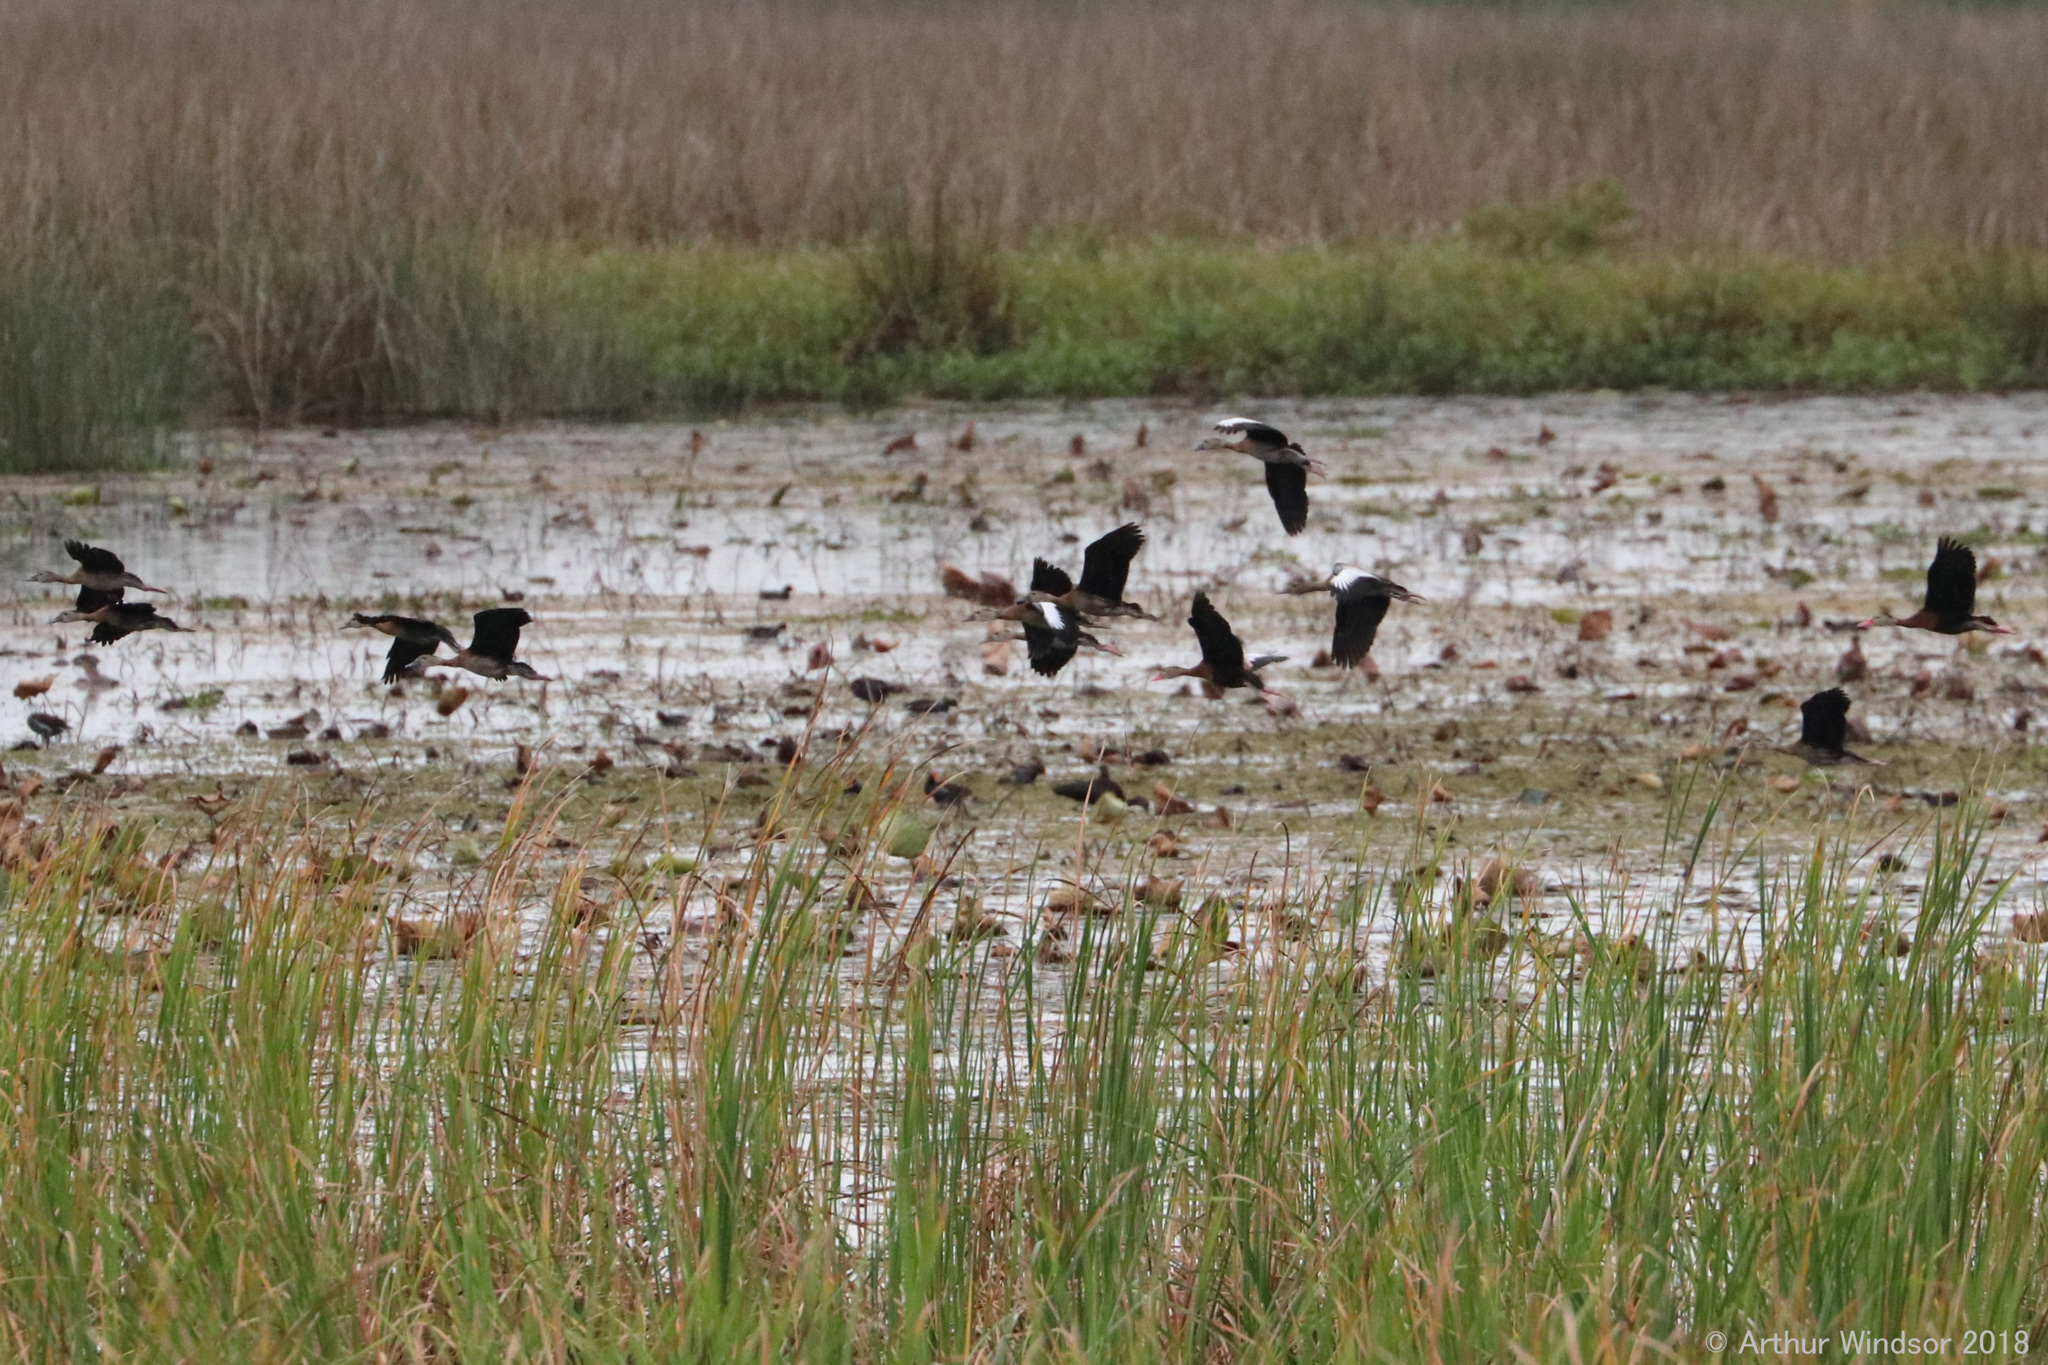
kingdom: Animalia
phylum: Chordata
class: Aves
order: Anseriformes
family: Anatidae
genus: Dendrocygna
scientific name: Dendrocygna autumnalis
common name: Black-bellied whistling duck
